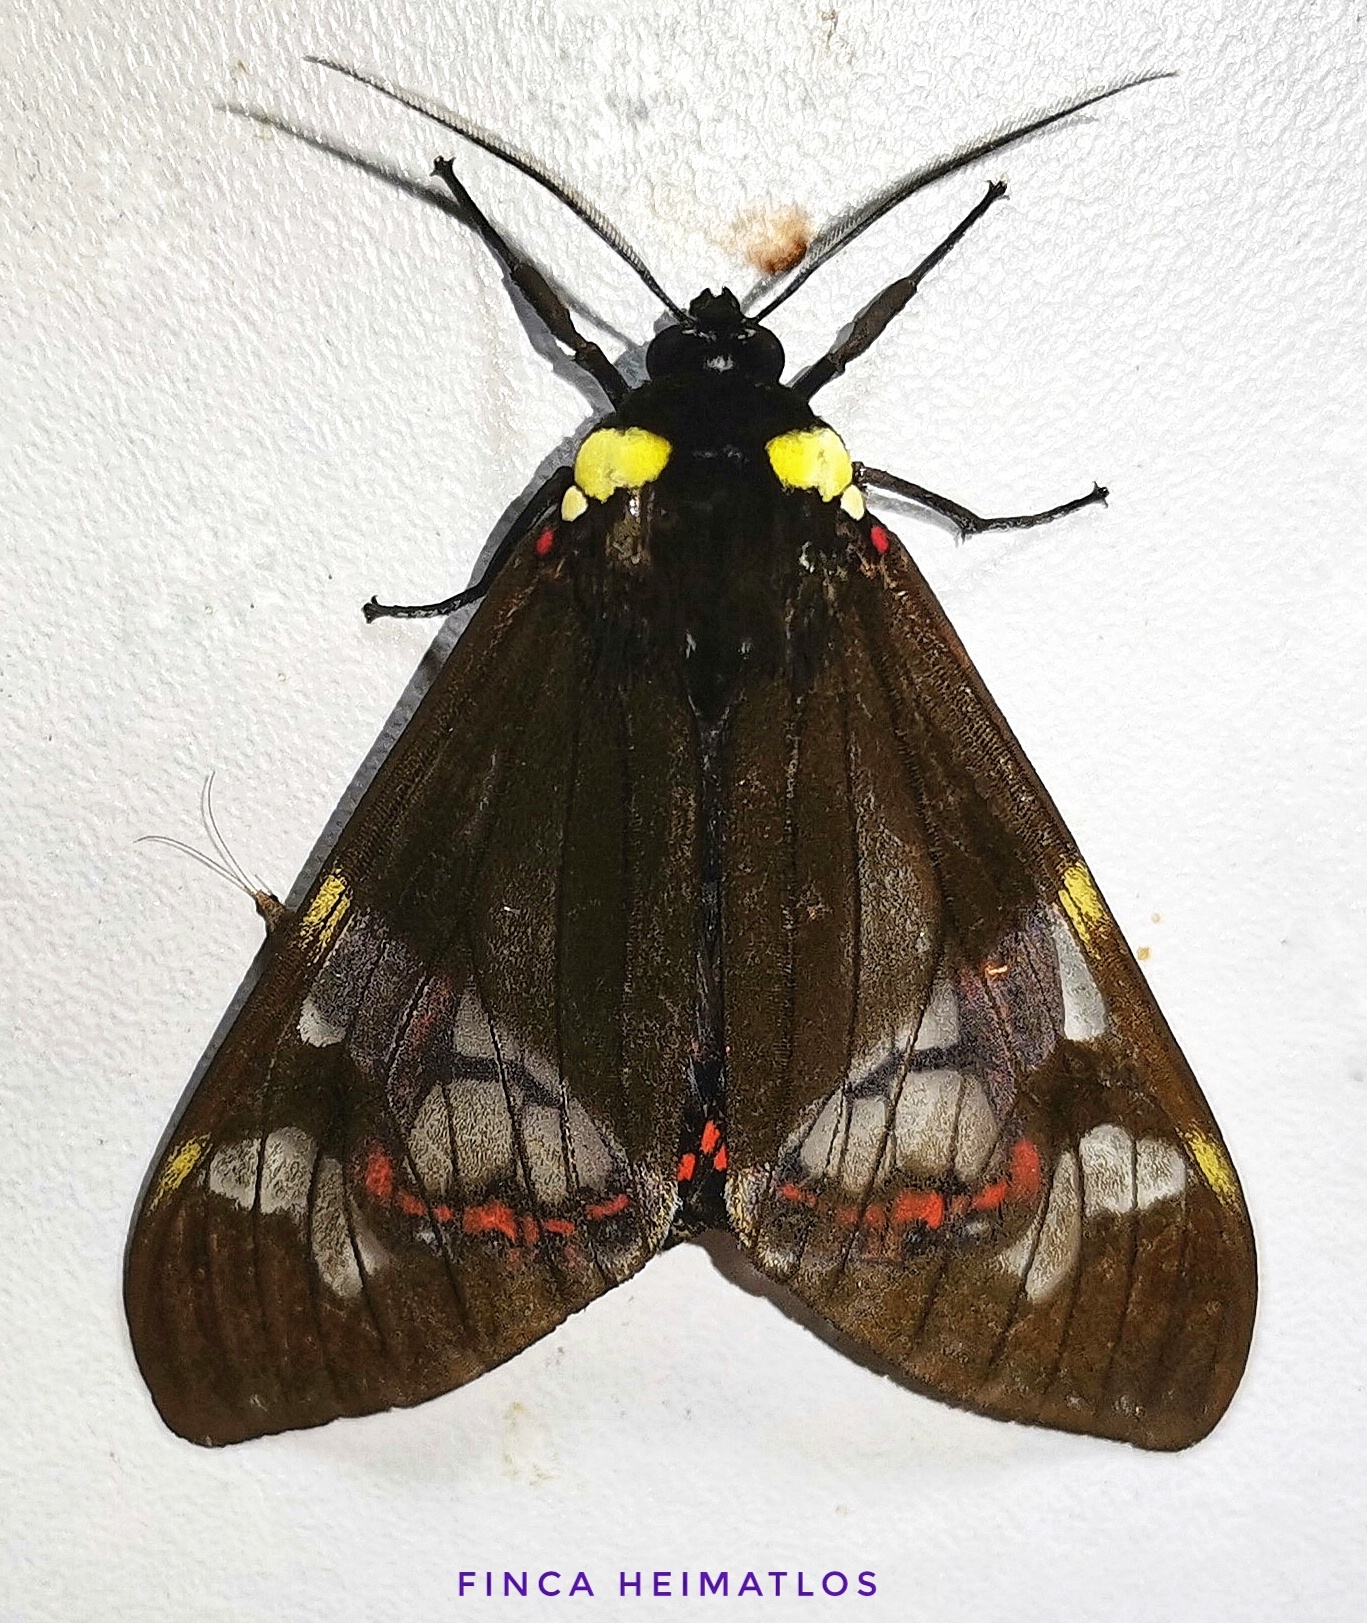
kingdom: Animalia
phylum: Arthropoda
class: Insecta
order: Lepidoptera
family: Erebidae
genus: Dysschema
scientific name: Dysschema marginalis
